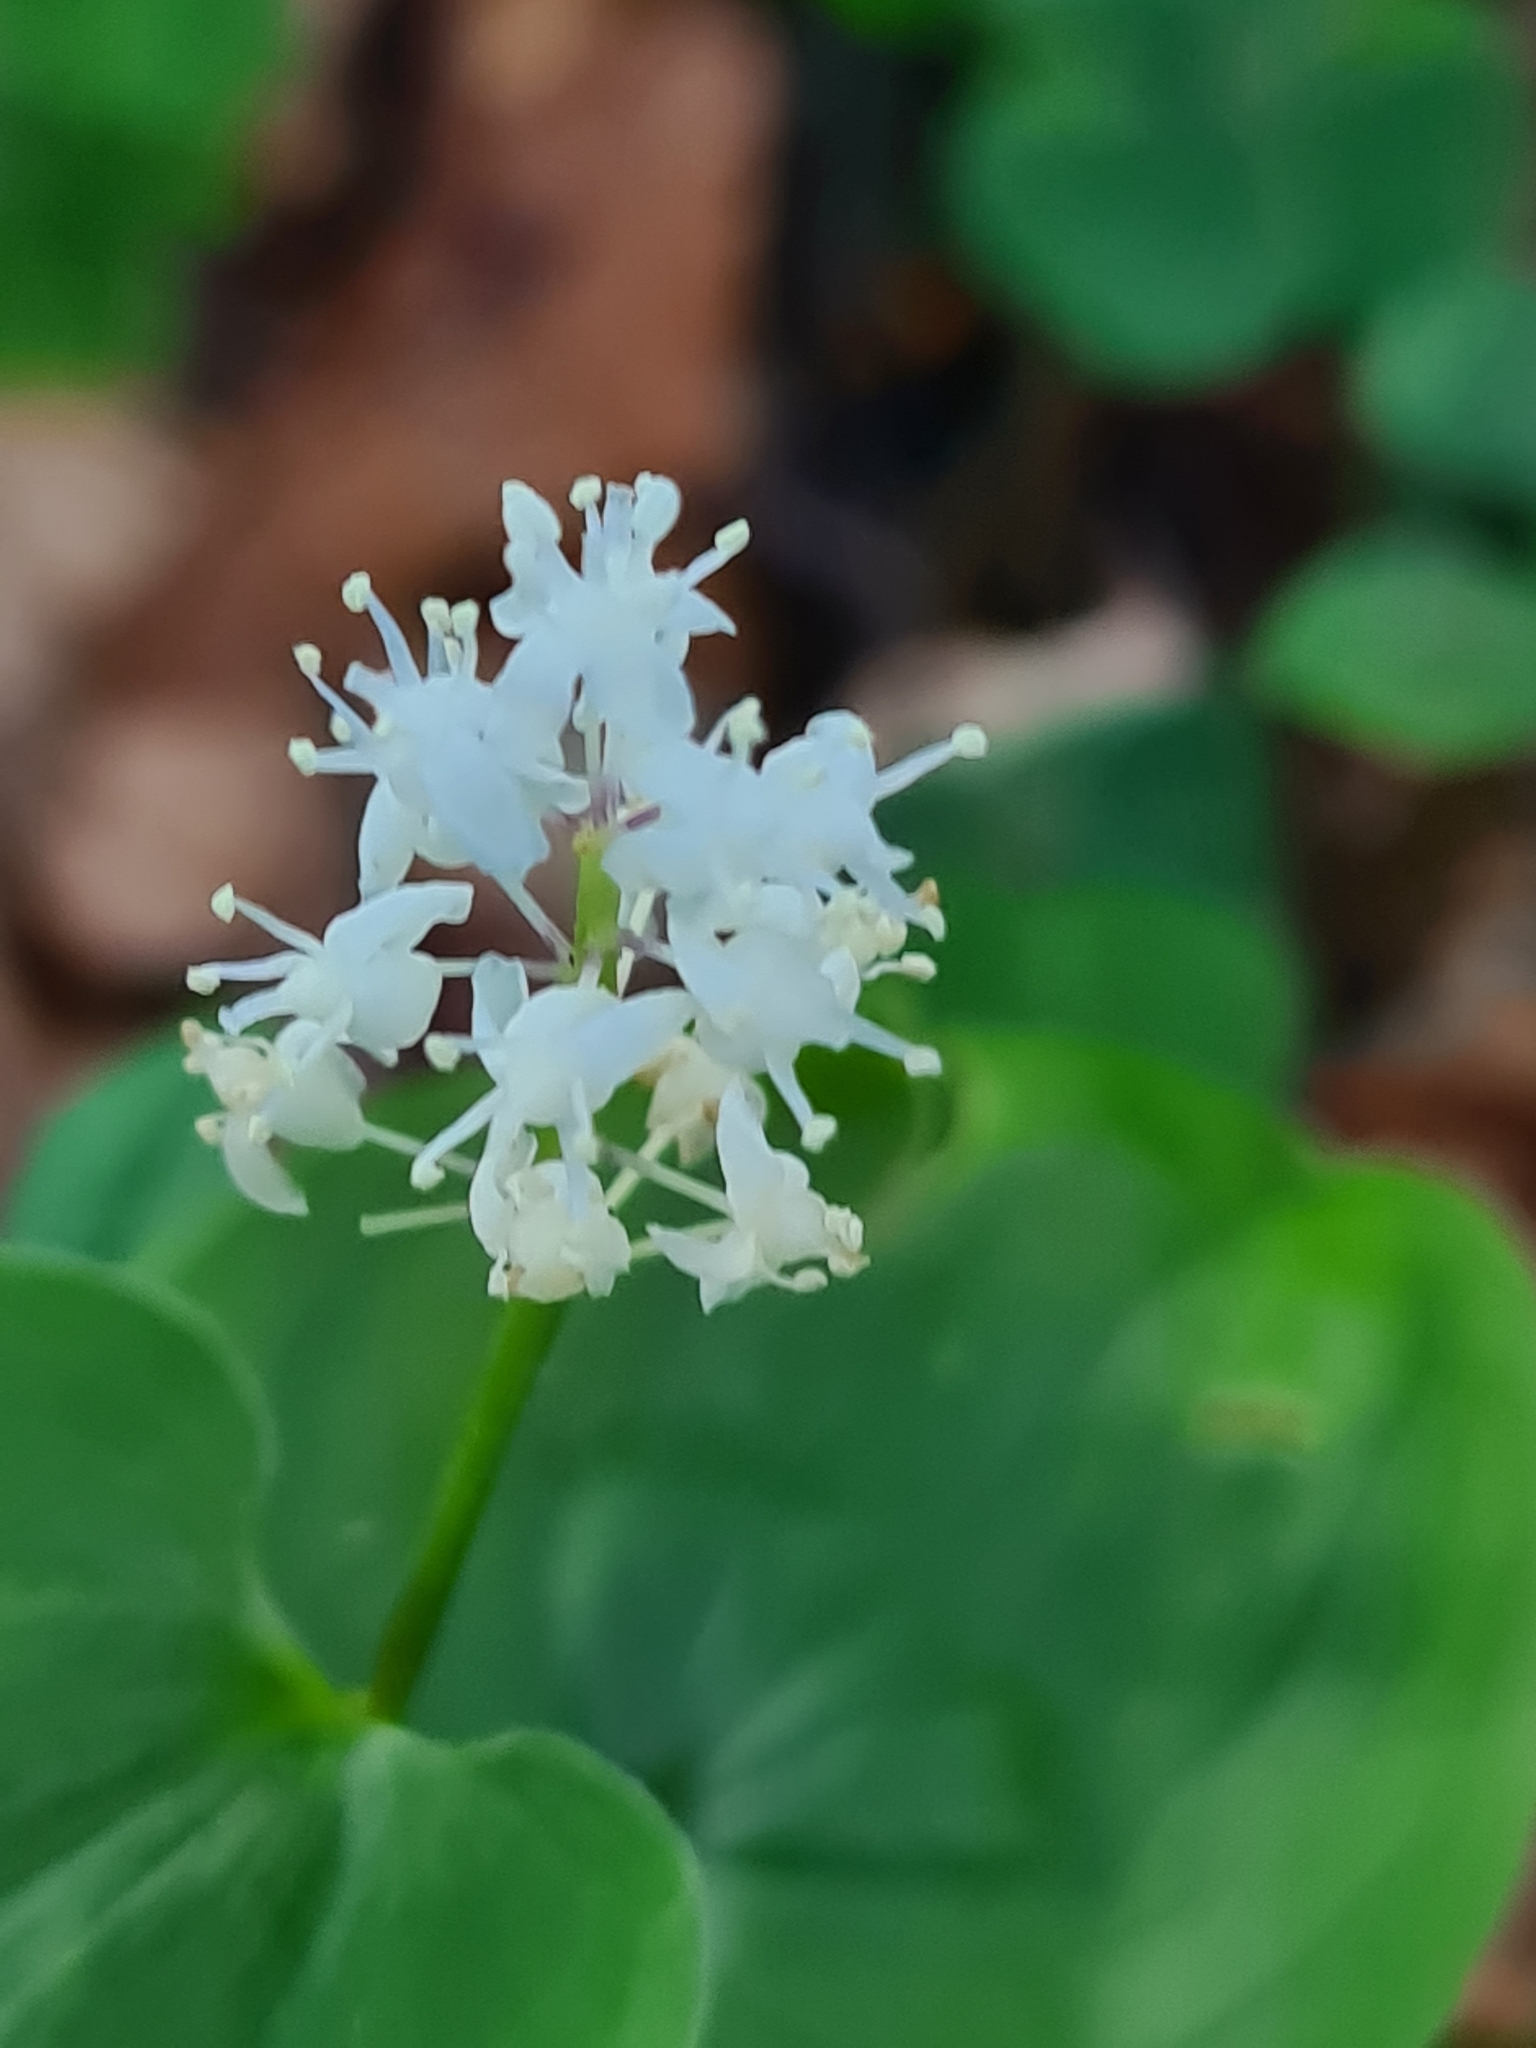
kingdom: Plantae
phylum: Tracheophyta
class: Liliopsida
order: Asparagales
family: Asparagaceae
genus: Maianthemum
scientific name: Maianthemum bifolium
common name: May lily
